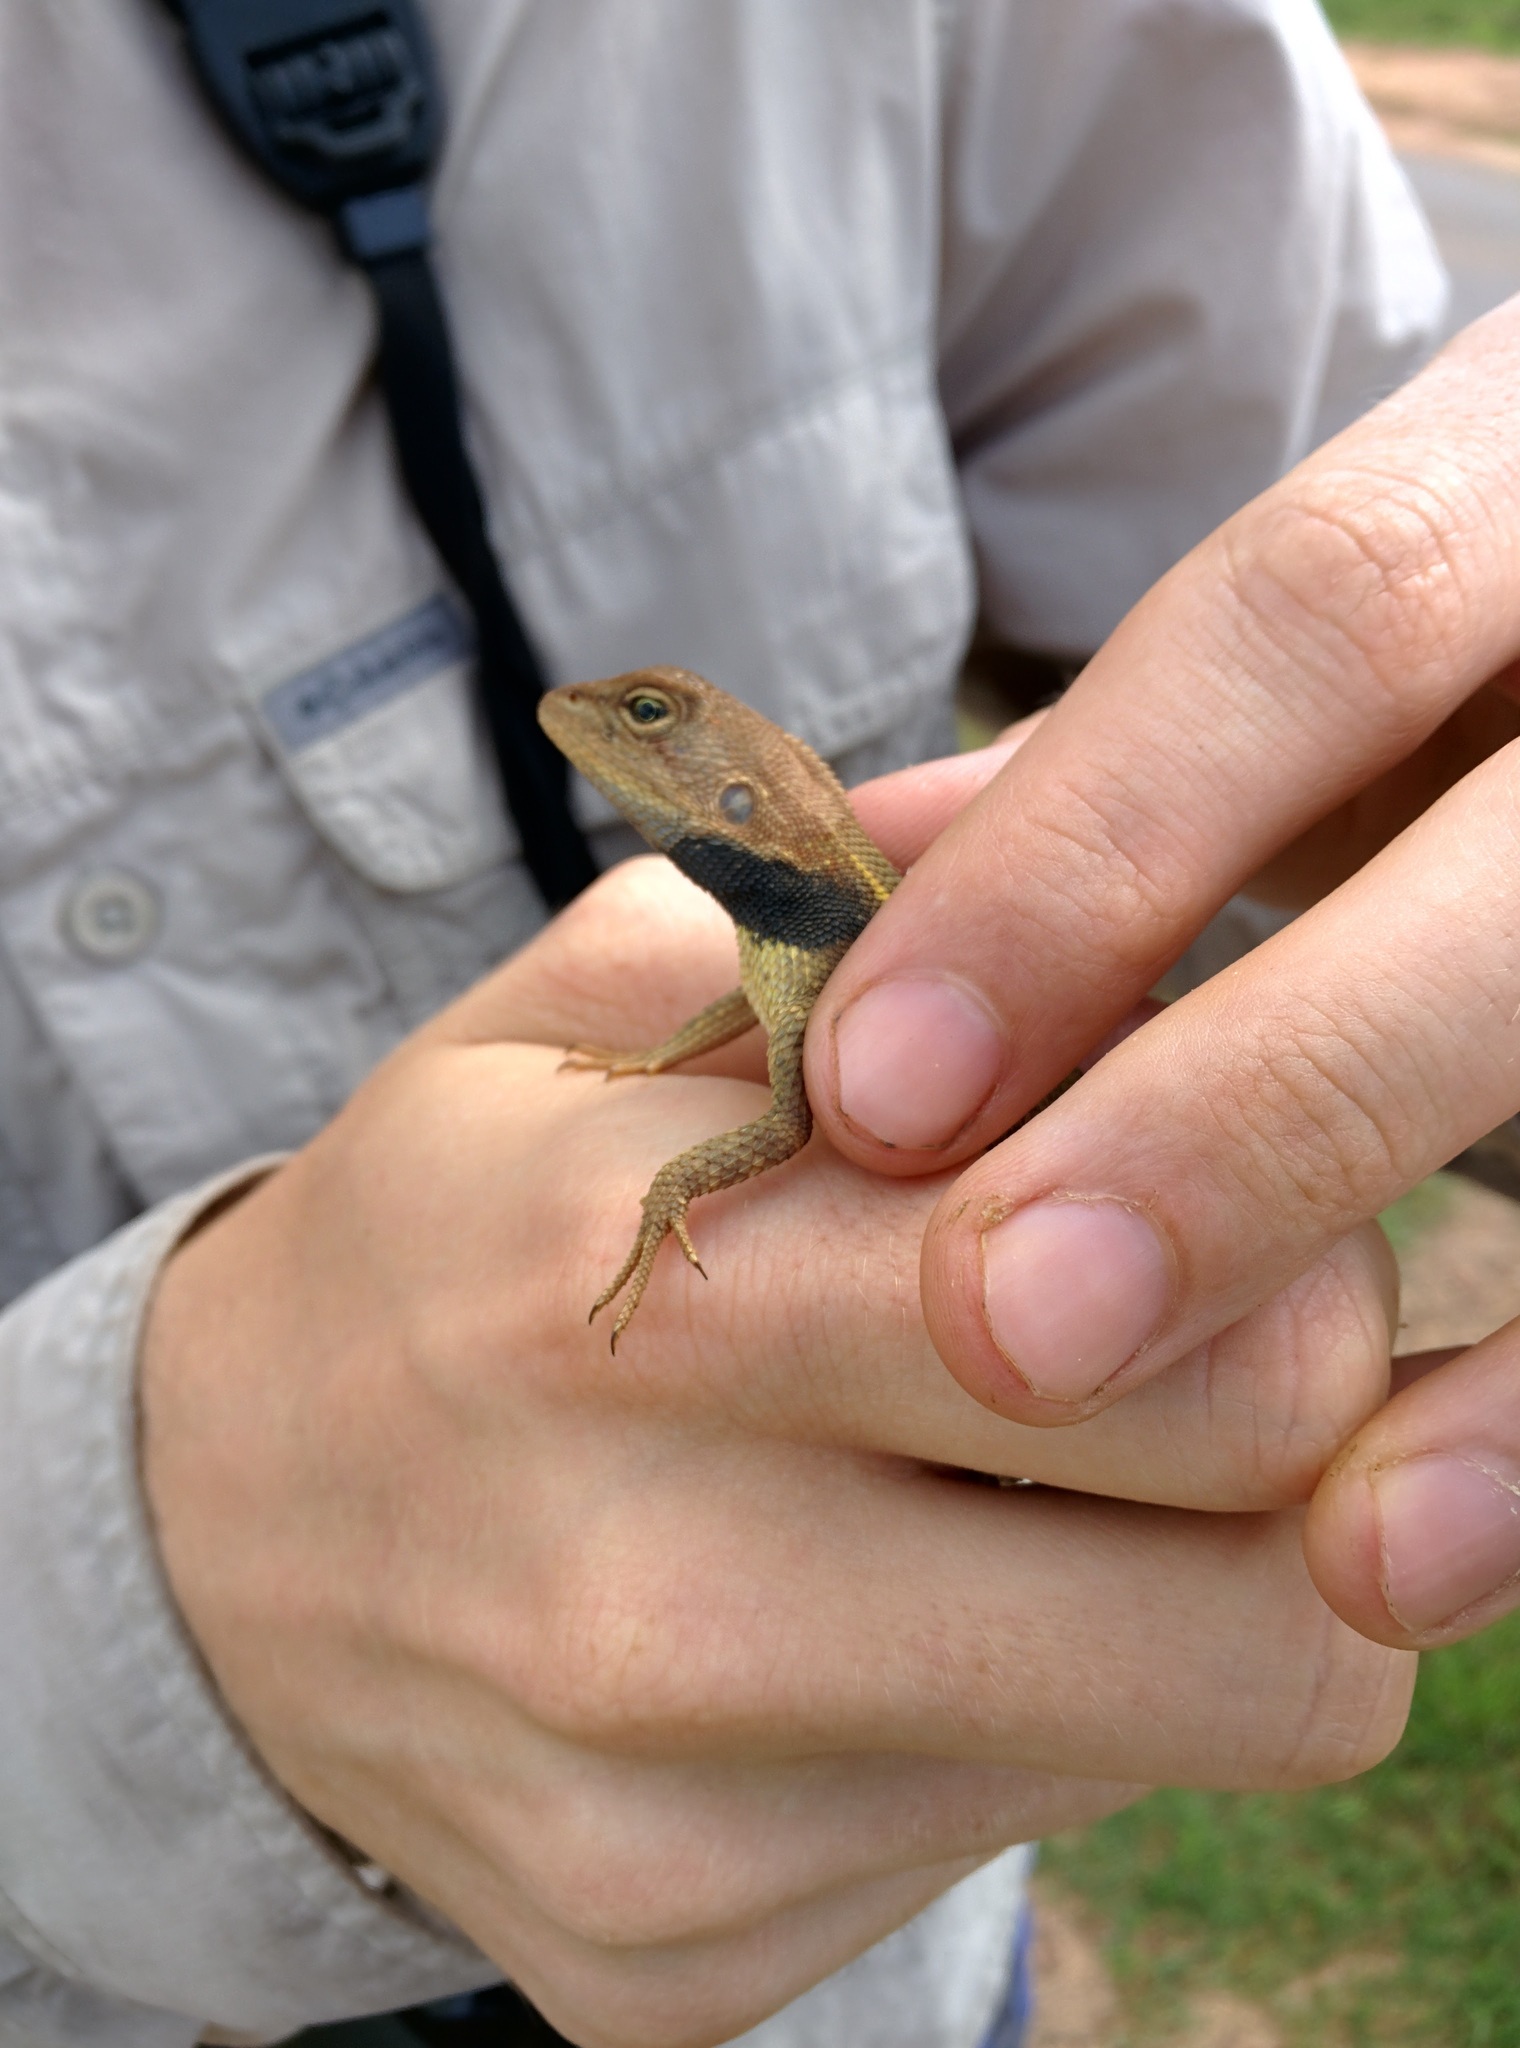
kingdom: Animalia
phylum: Chordata
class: Squamata
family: Agamidae
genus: Diporiphora
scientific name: Diporiphora jugularis
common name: Black-throated two-pored dragon
